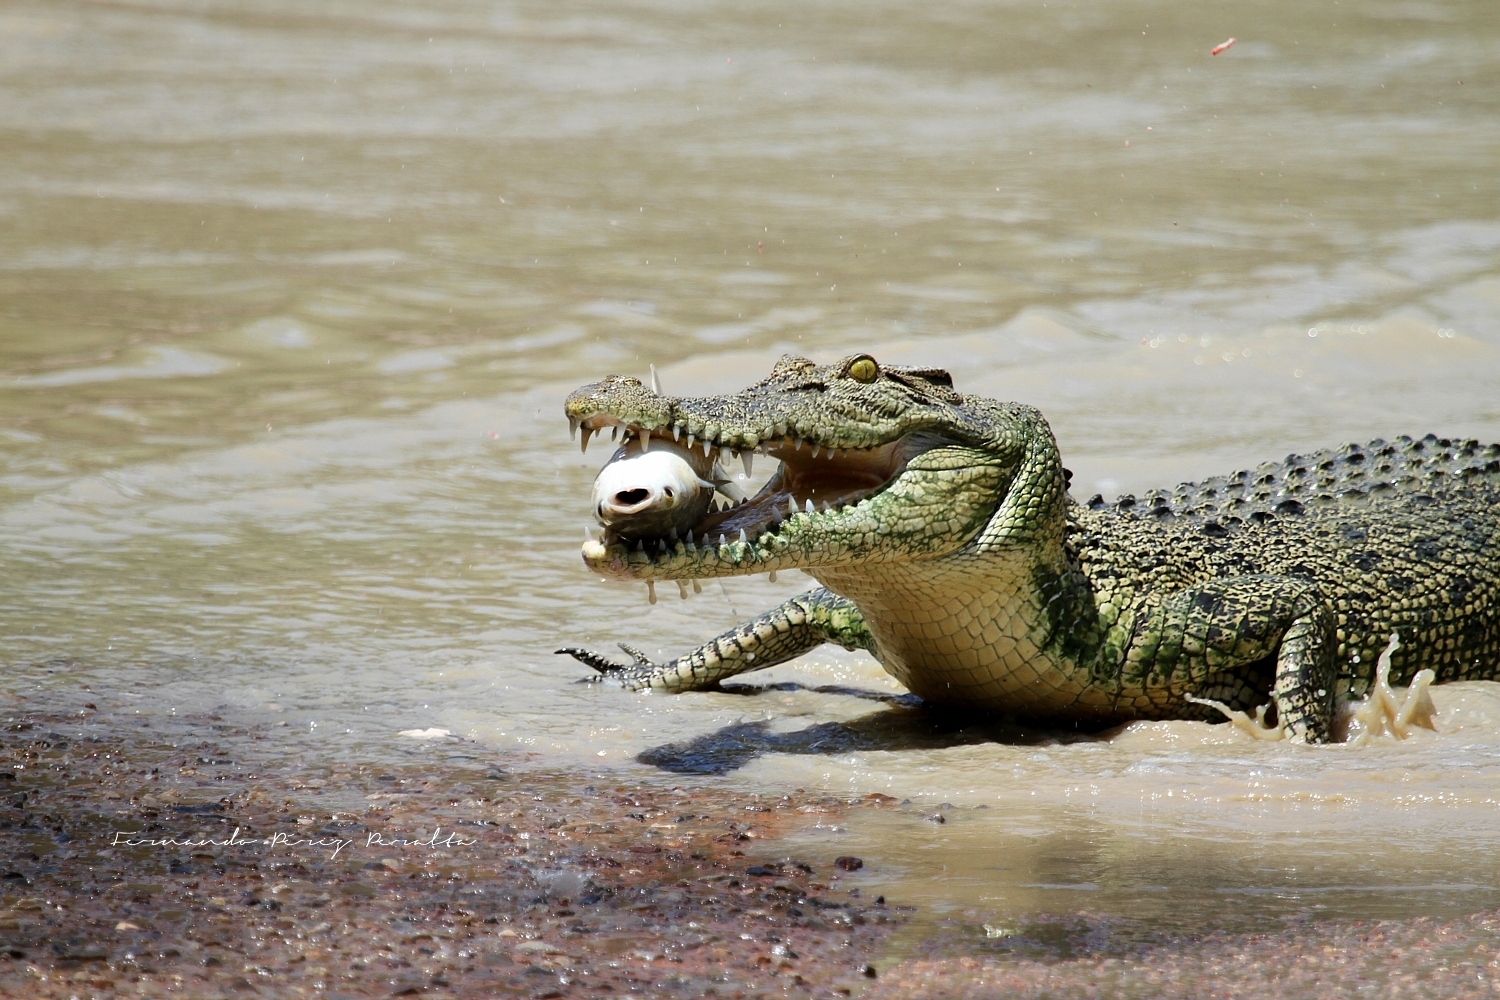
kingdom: Animalia
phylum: Chordata
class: Crocodylia
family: Crocodylidae
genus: Crocodylus
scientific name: Crocodylus porosus
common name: Saltwater crocodile
